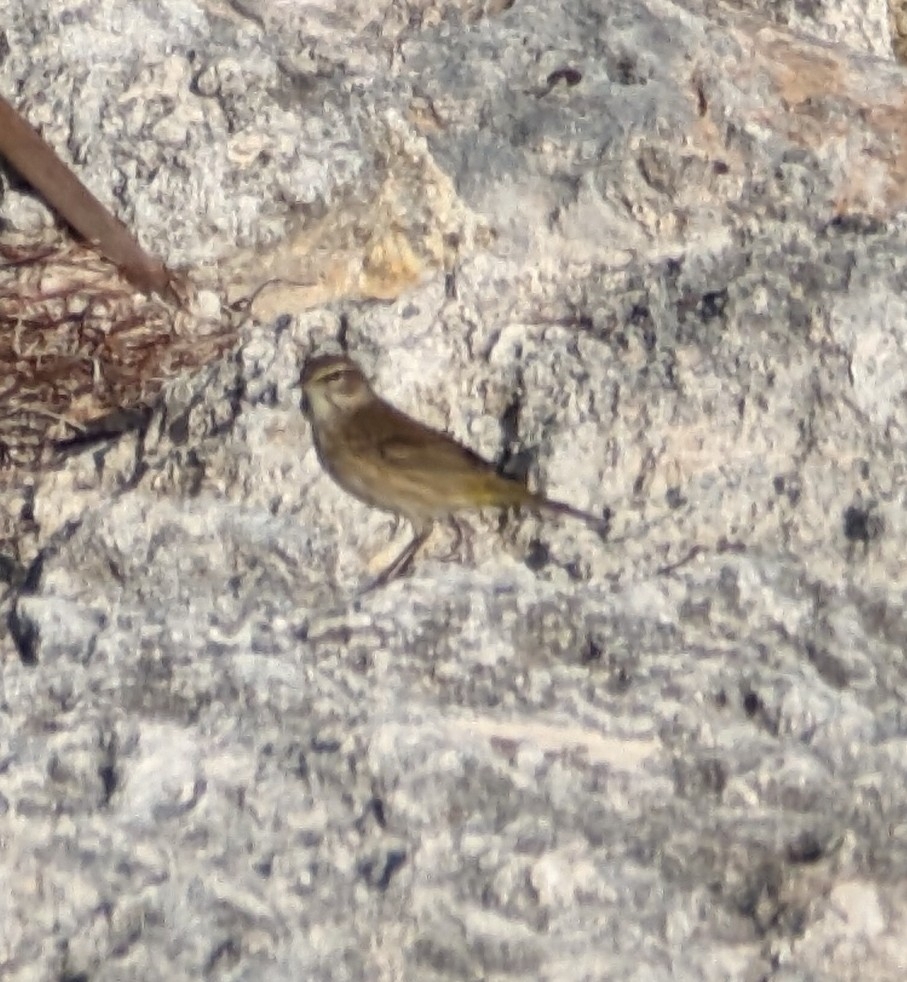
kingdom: Animalia
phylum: Chordata
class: Aves
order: Passeriformes
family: Parulidae
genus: Setophaga
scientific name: Setophaga palmarum
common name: Palm warbler
